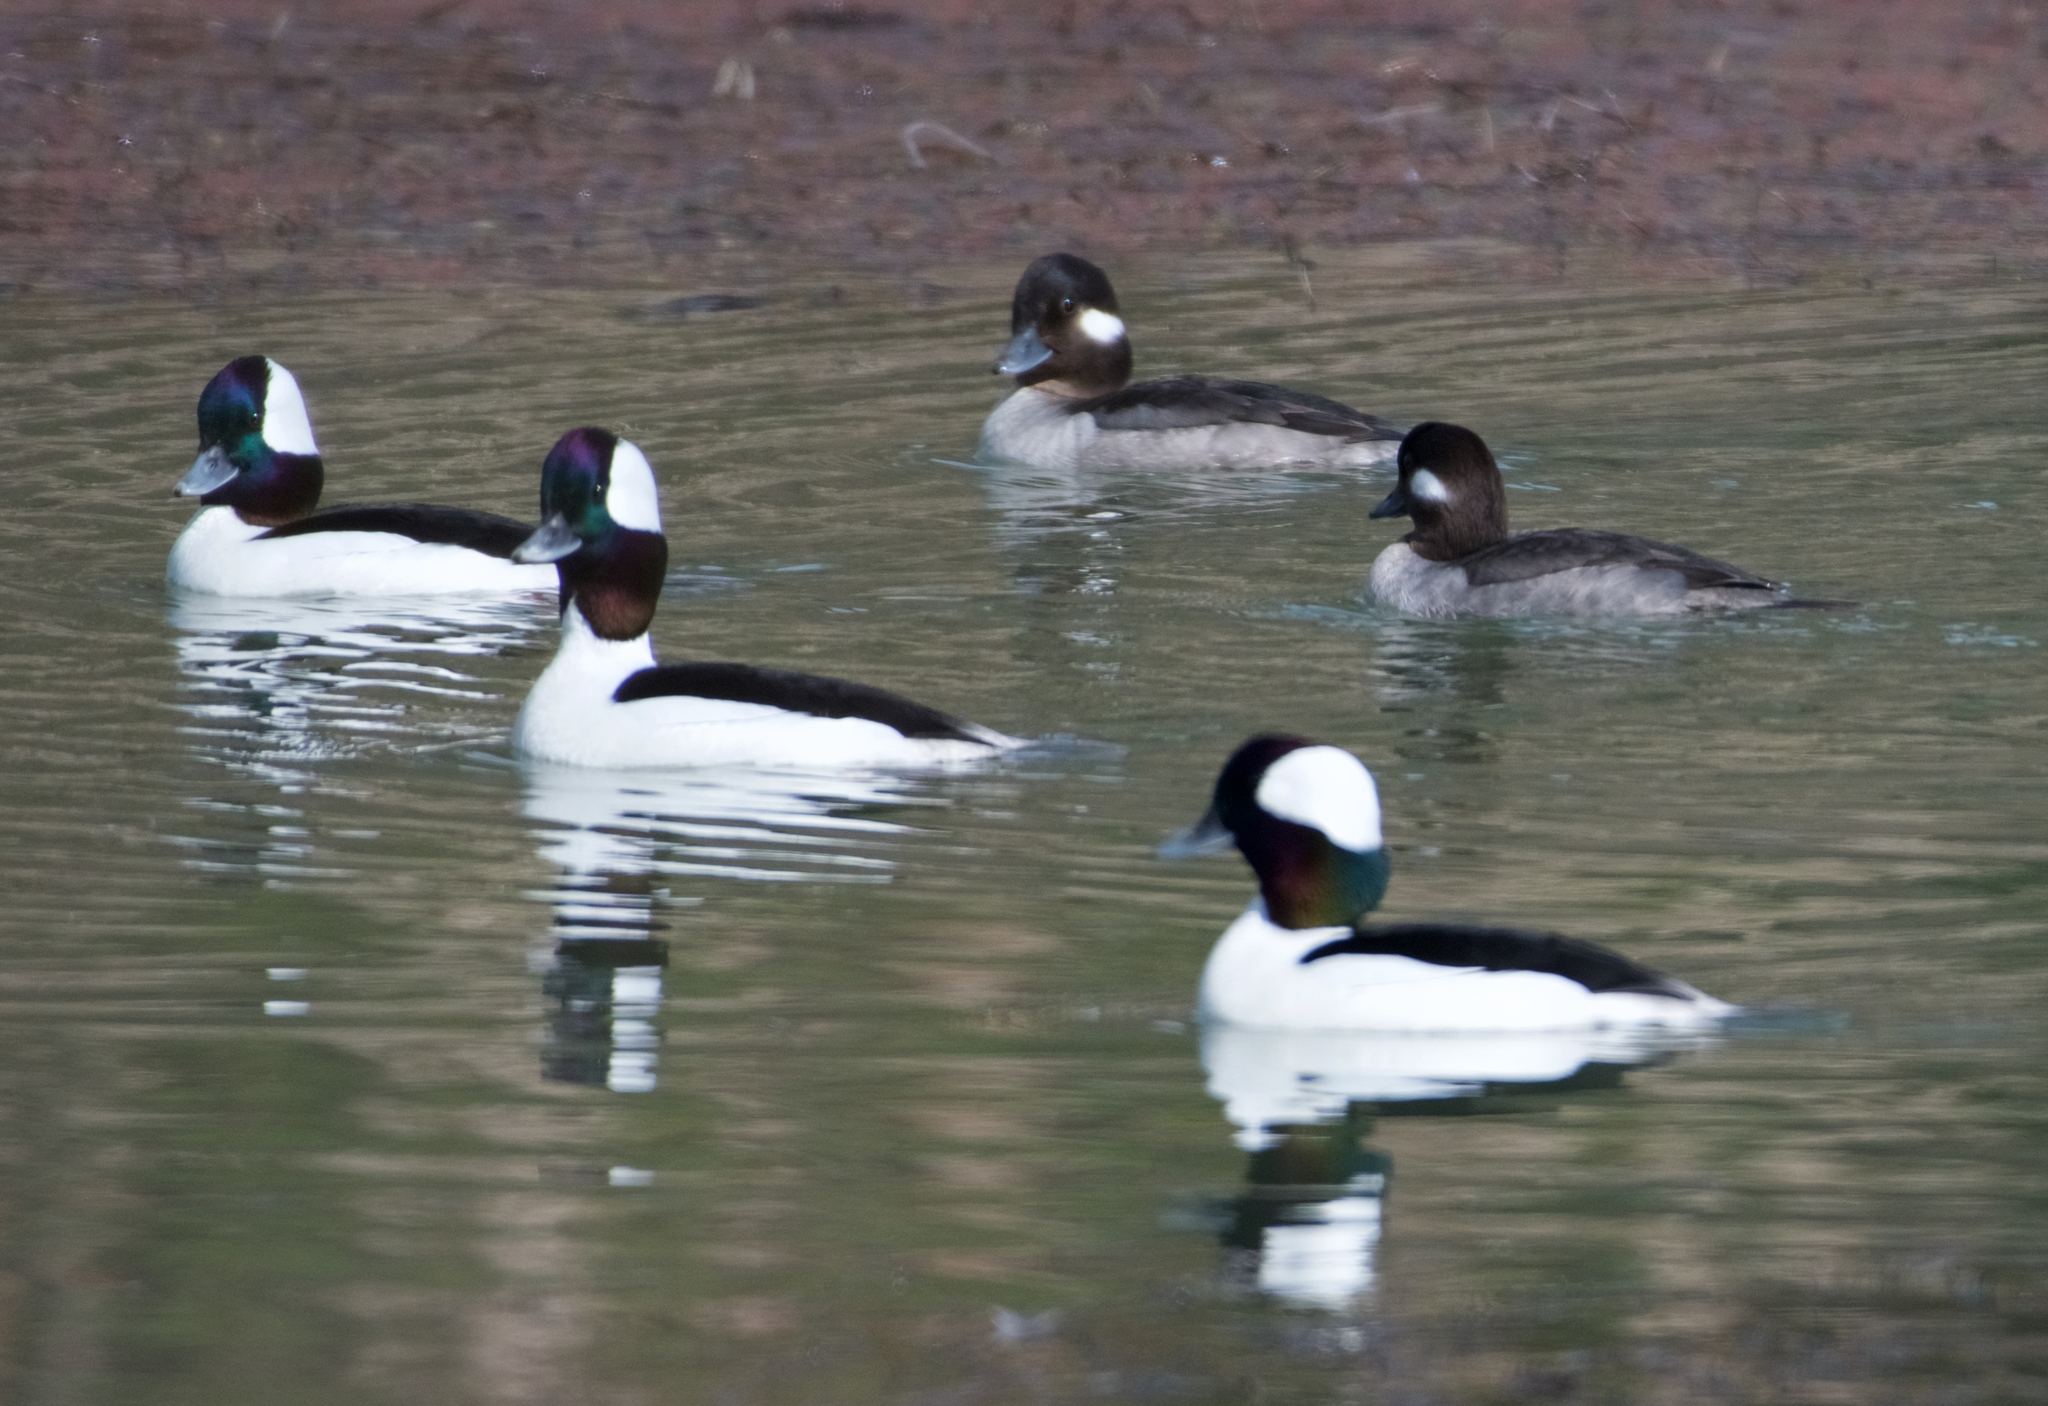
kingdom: Animalia
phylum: Chordata
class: Aves
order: Anseriformes
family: Anatidae
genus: Bucephala
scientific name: Bucephala albeola
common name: Bufflehead
